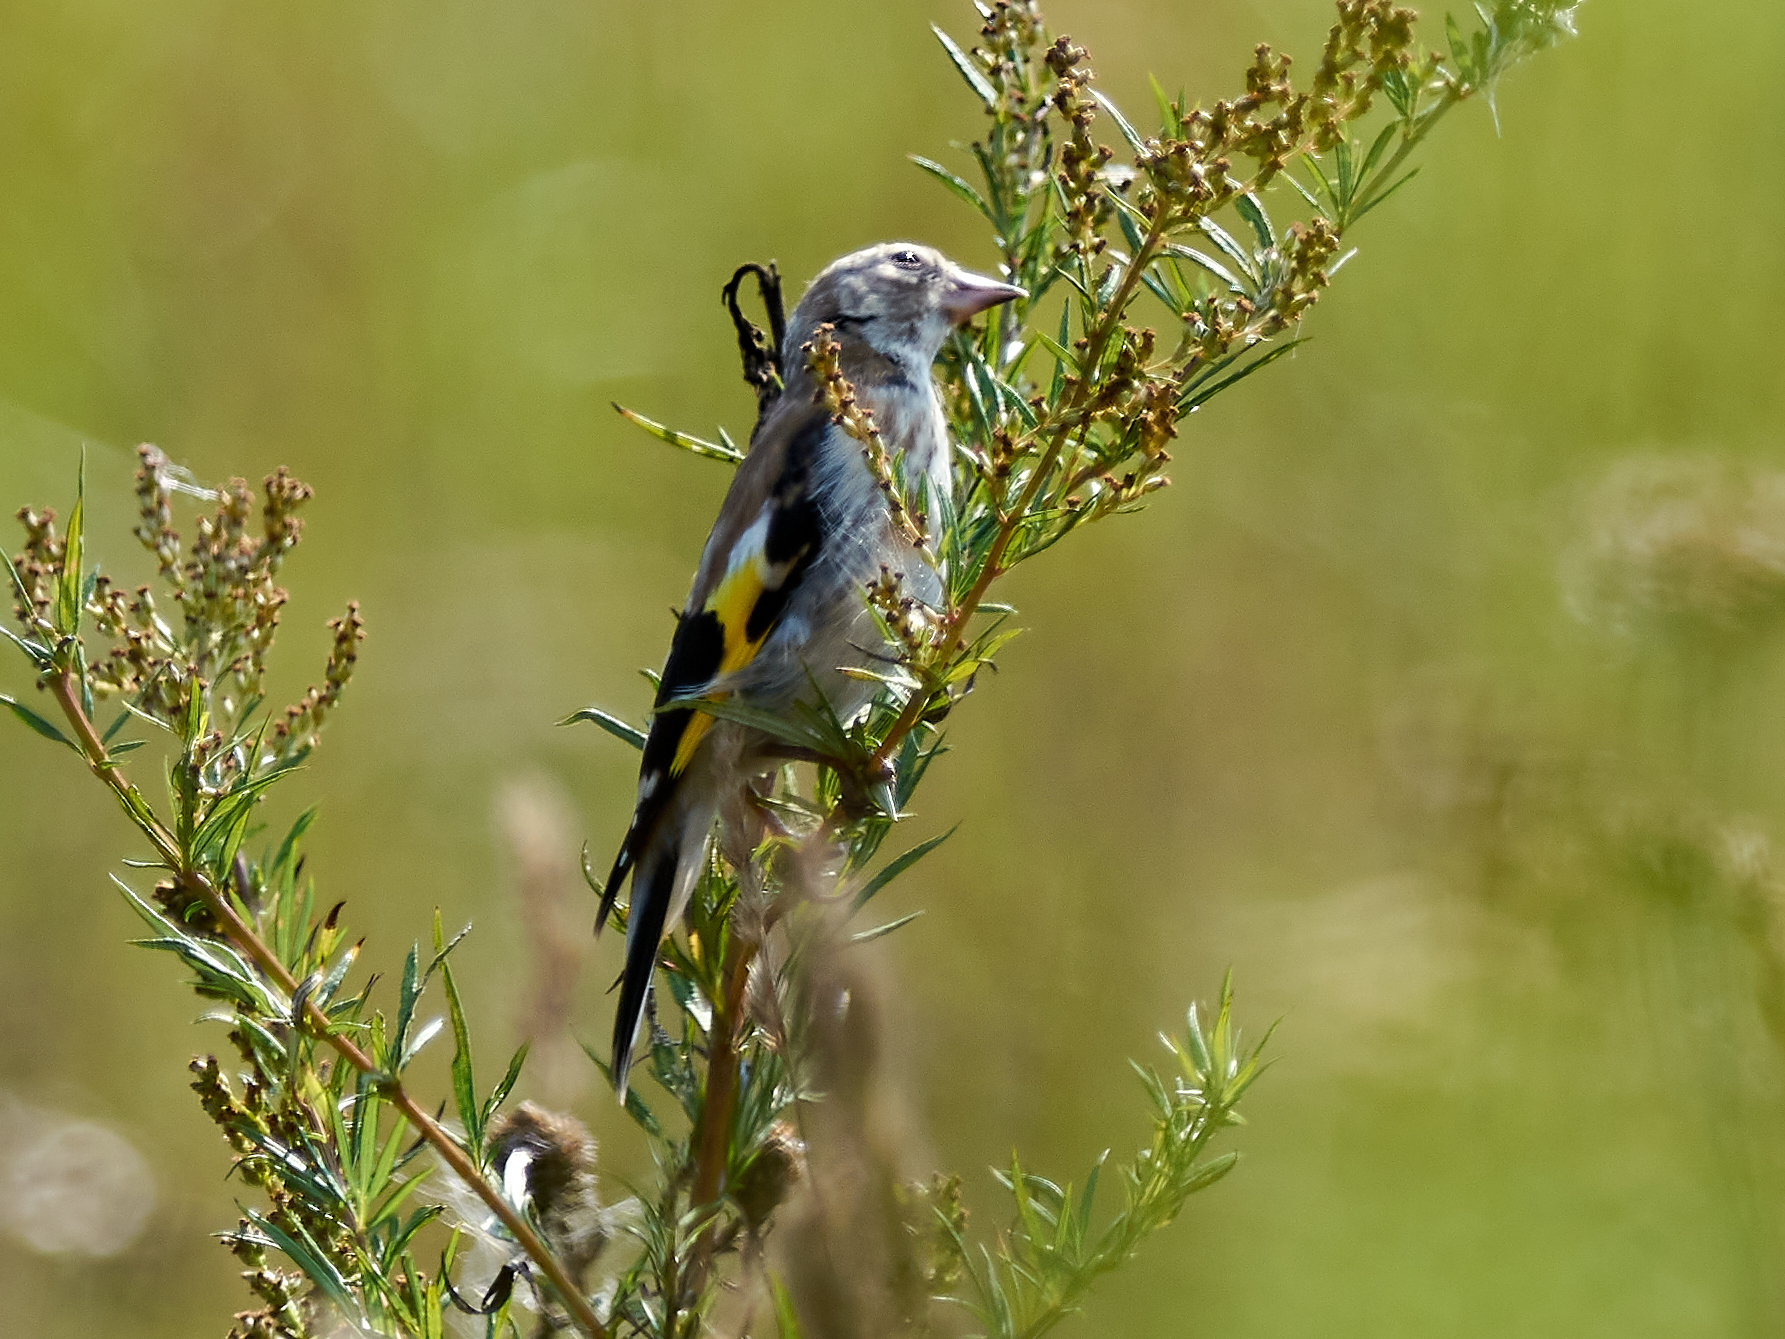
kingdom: Animalia
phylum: Chordata
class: Aves
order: Passeriformes
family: Fringillidae
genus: Carduelis
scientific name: Carduelis carduelis
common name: European goldfinch
